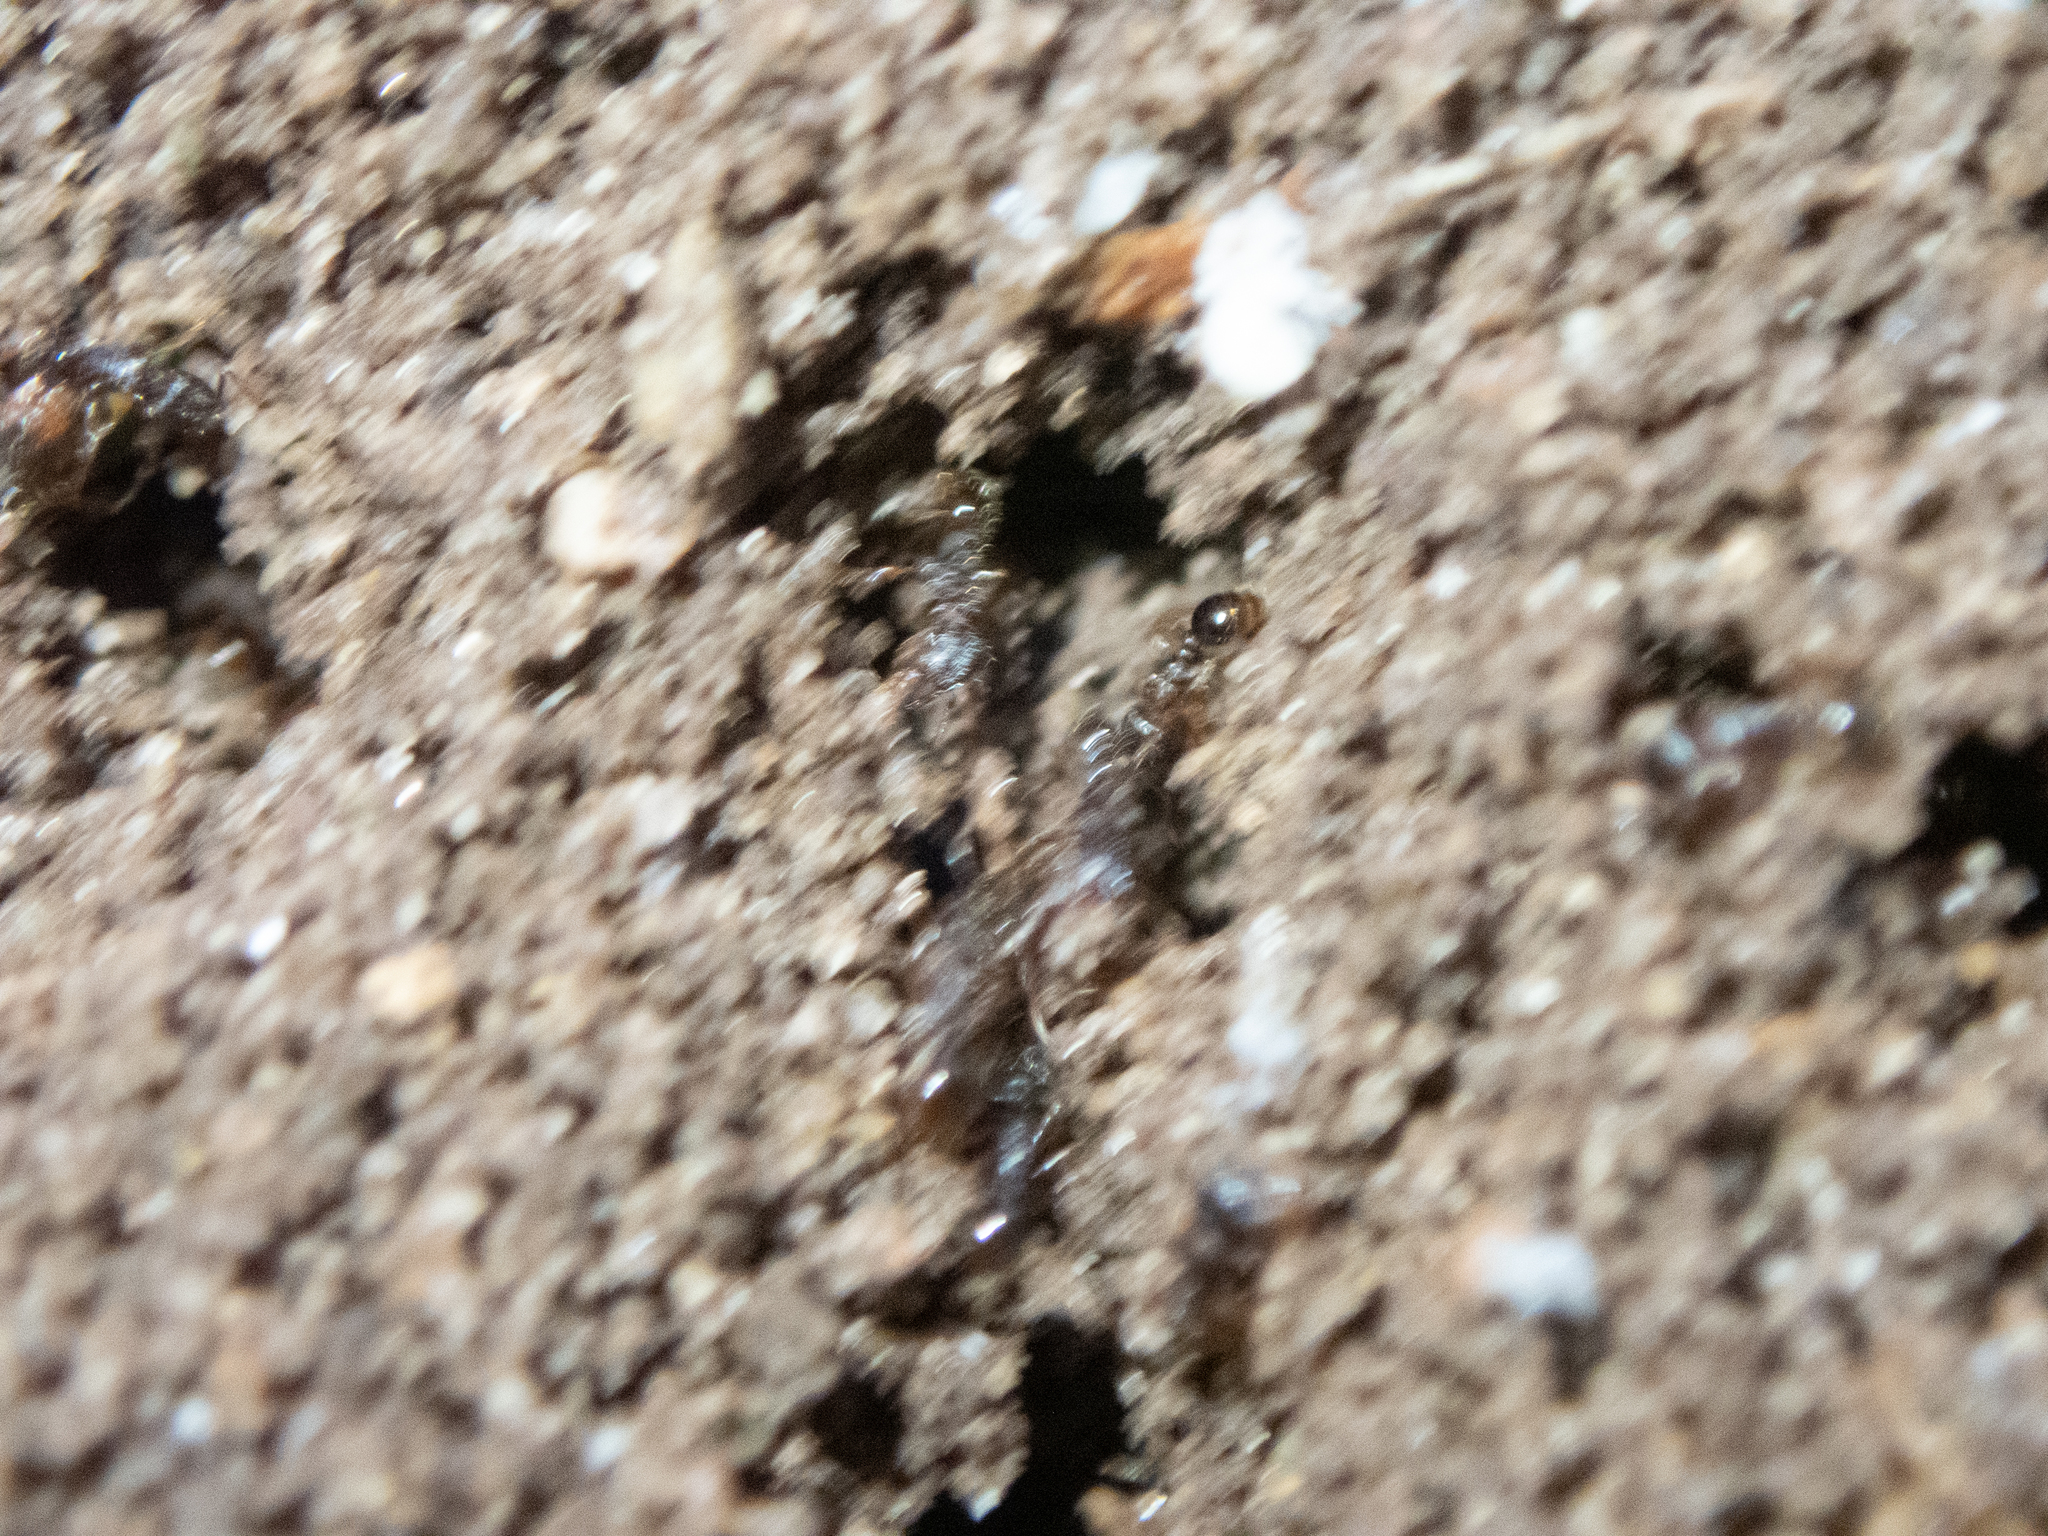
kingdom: Animalia
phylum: Arthropoda
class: Insecta
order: Hymenoptera
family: Formicidae
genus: Tetramorium
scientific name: Tetramorium immigrans
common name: Pavement ant
